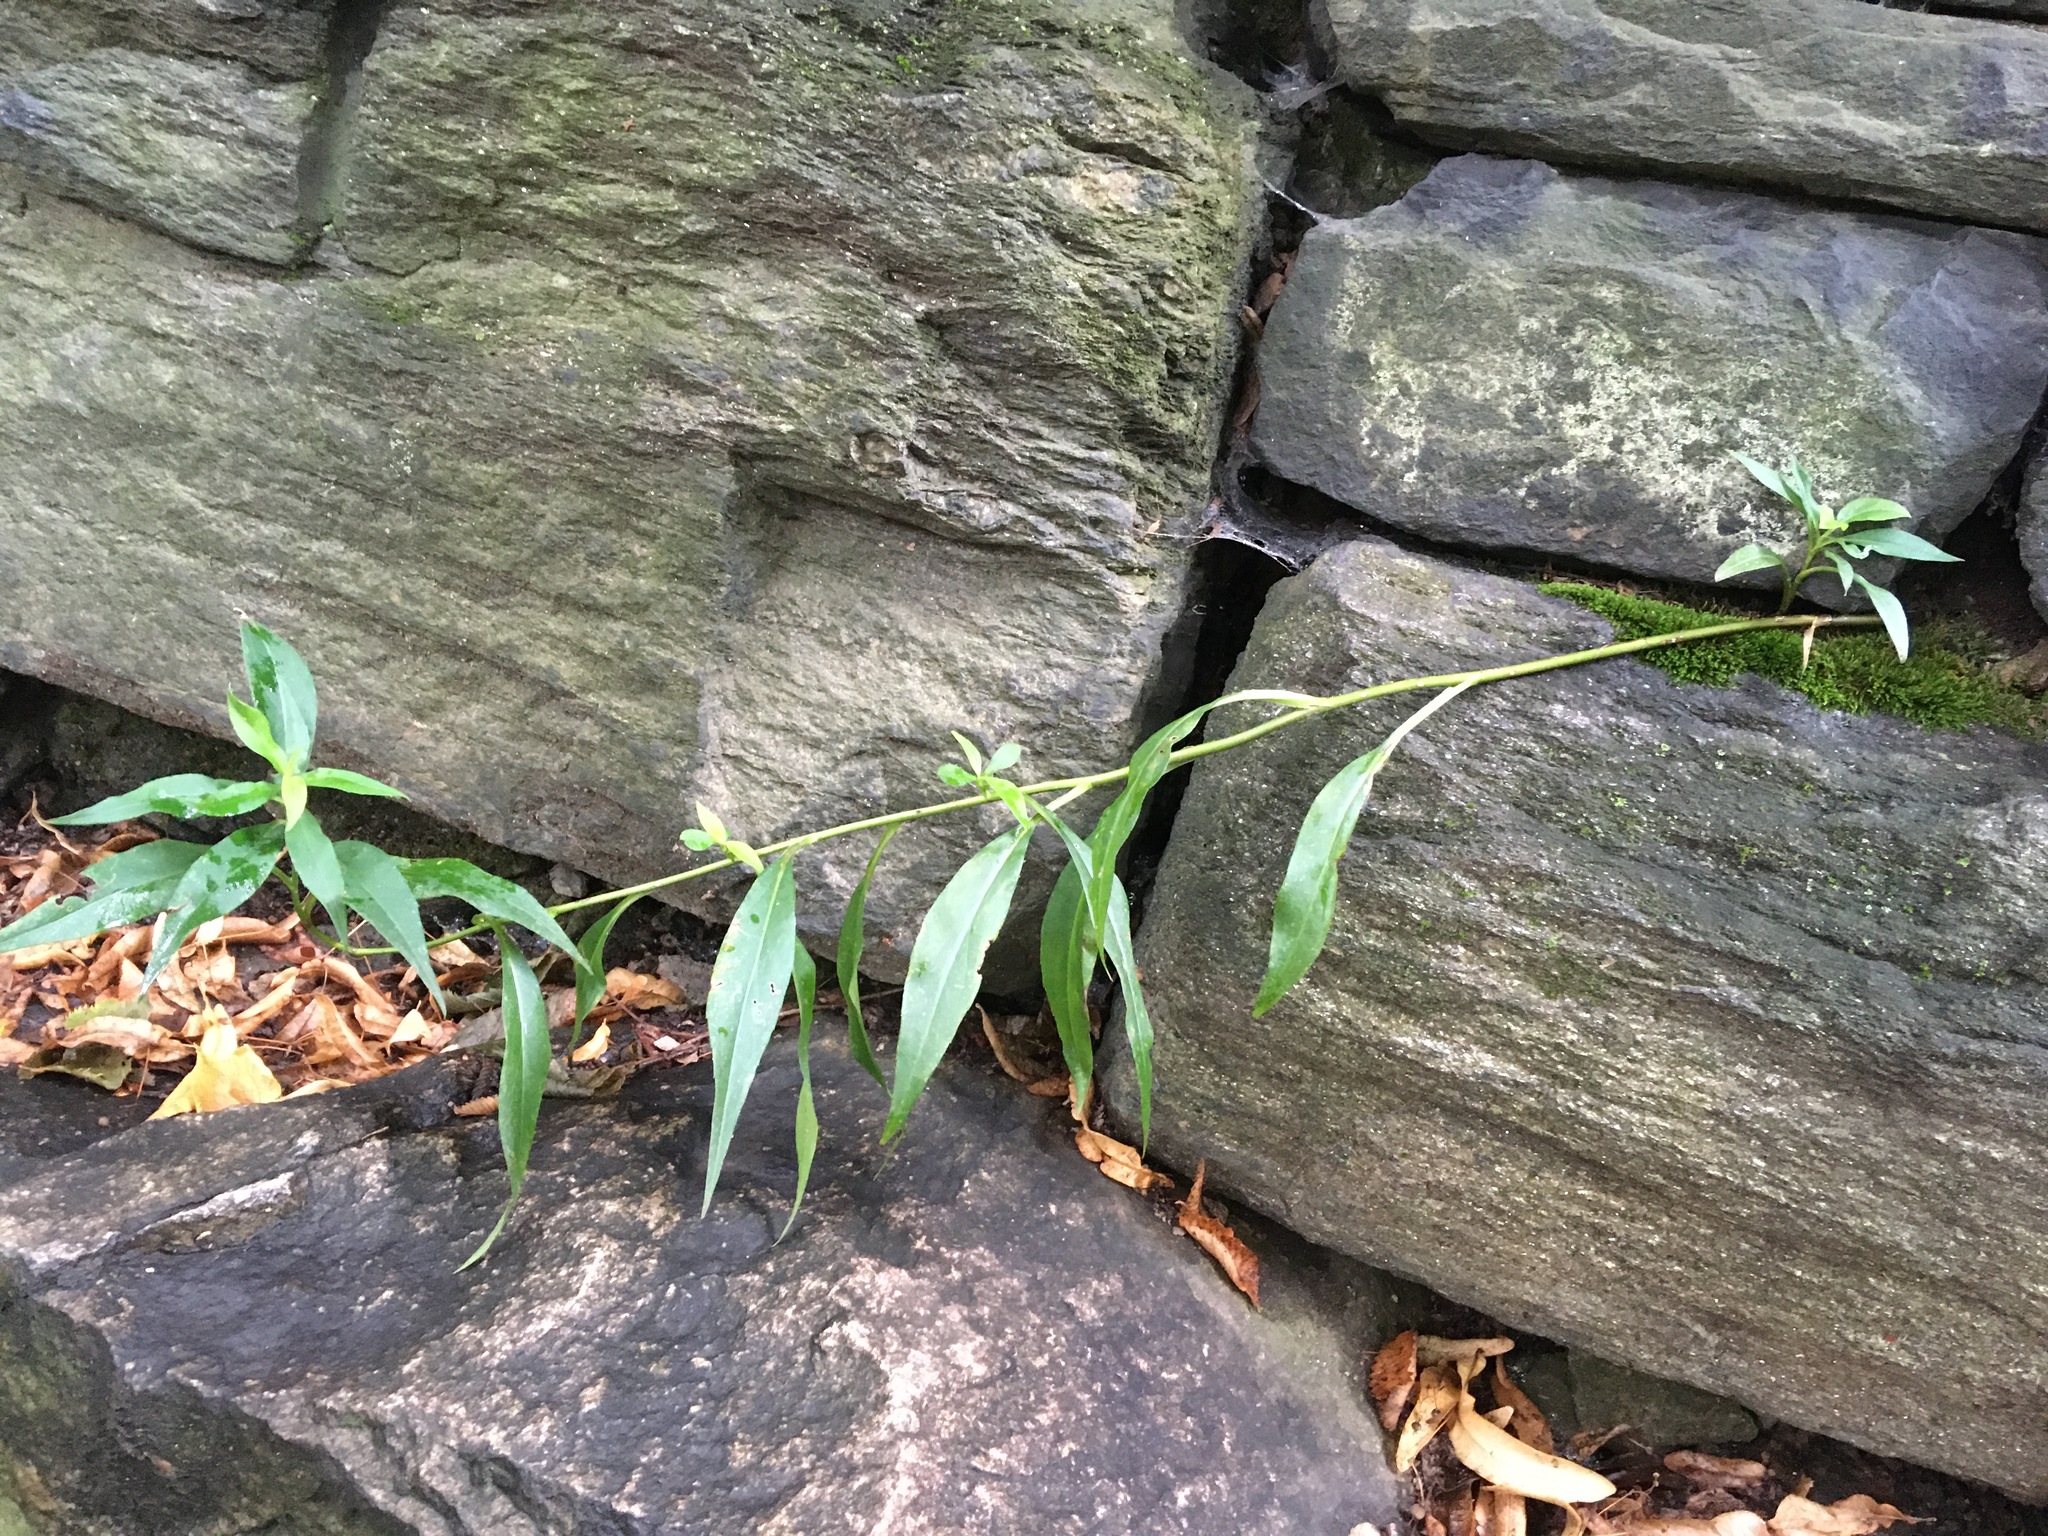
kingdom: Plantae
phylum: Tracheophyta
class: Magnoliopsida
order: Asterales
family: Asteraceae
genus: Symphyotrichum
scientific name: Symphyotrichum lanceolatum
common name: Panicled aster
